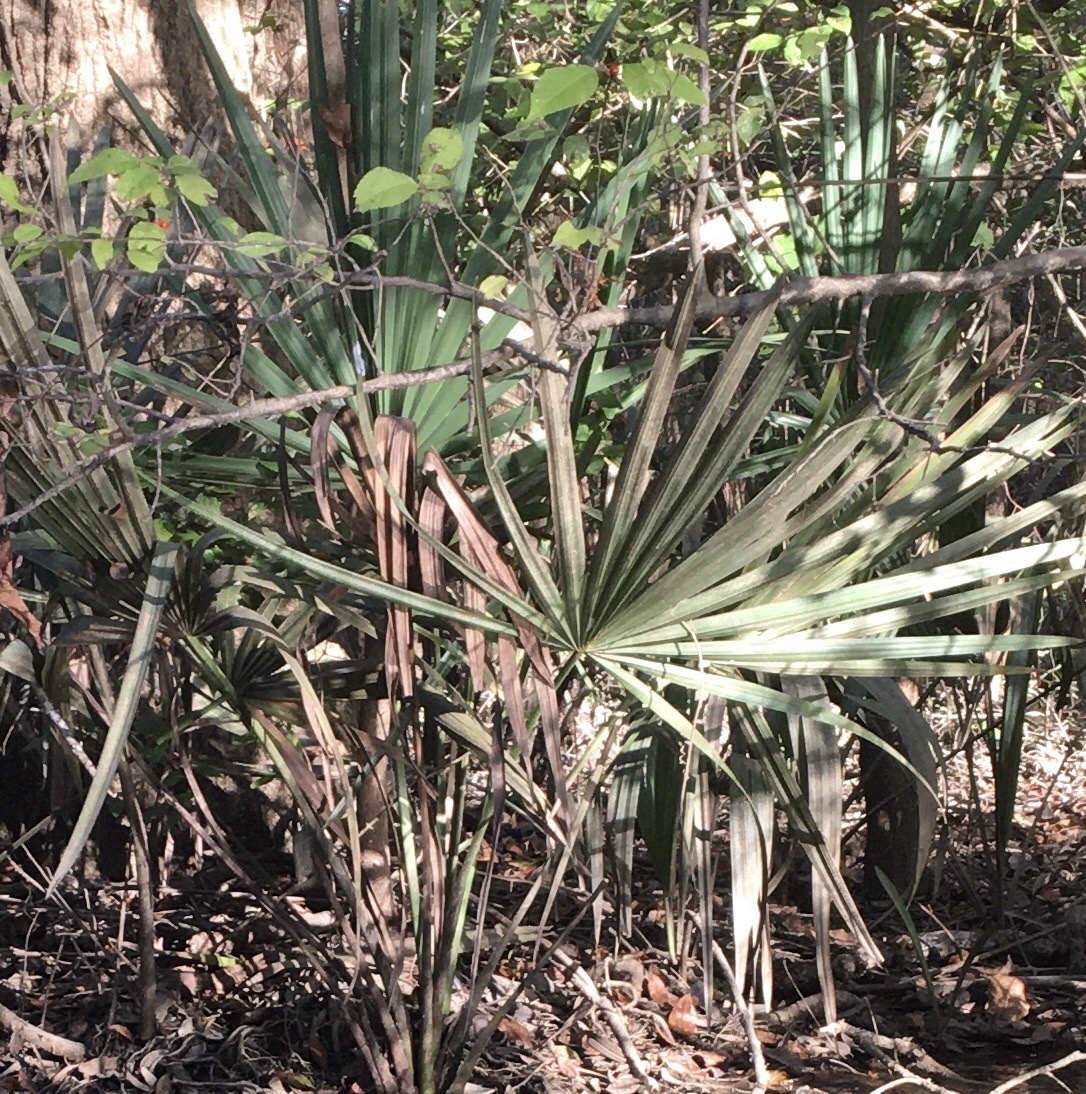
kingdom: Plantae
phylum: Tracheophyta
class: Liliopsida
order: Arecales
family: Arecaceae
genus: Sabal
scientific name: Sabal minor
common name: Dwarf palmetto
